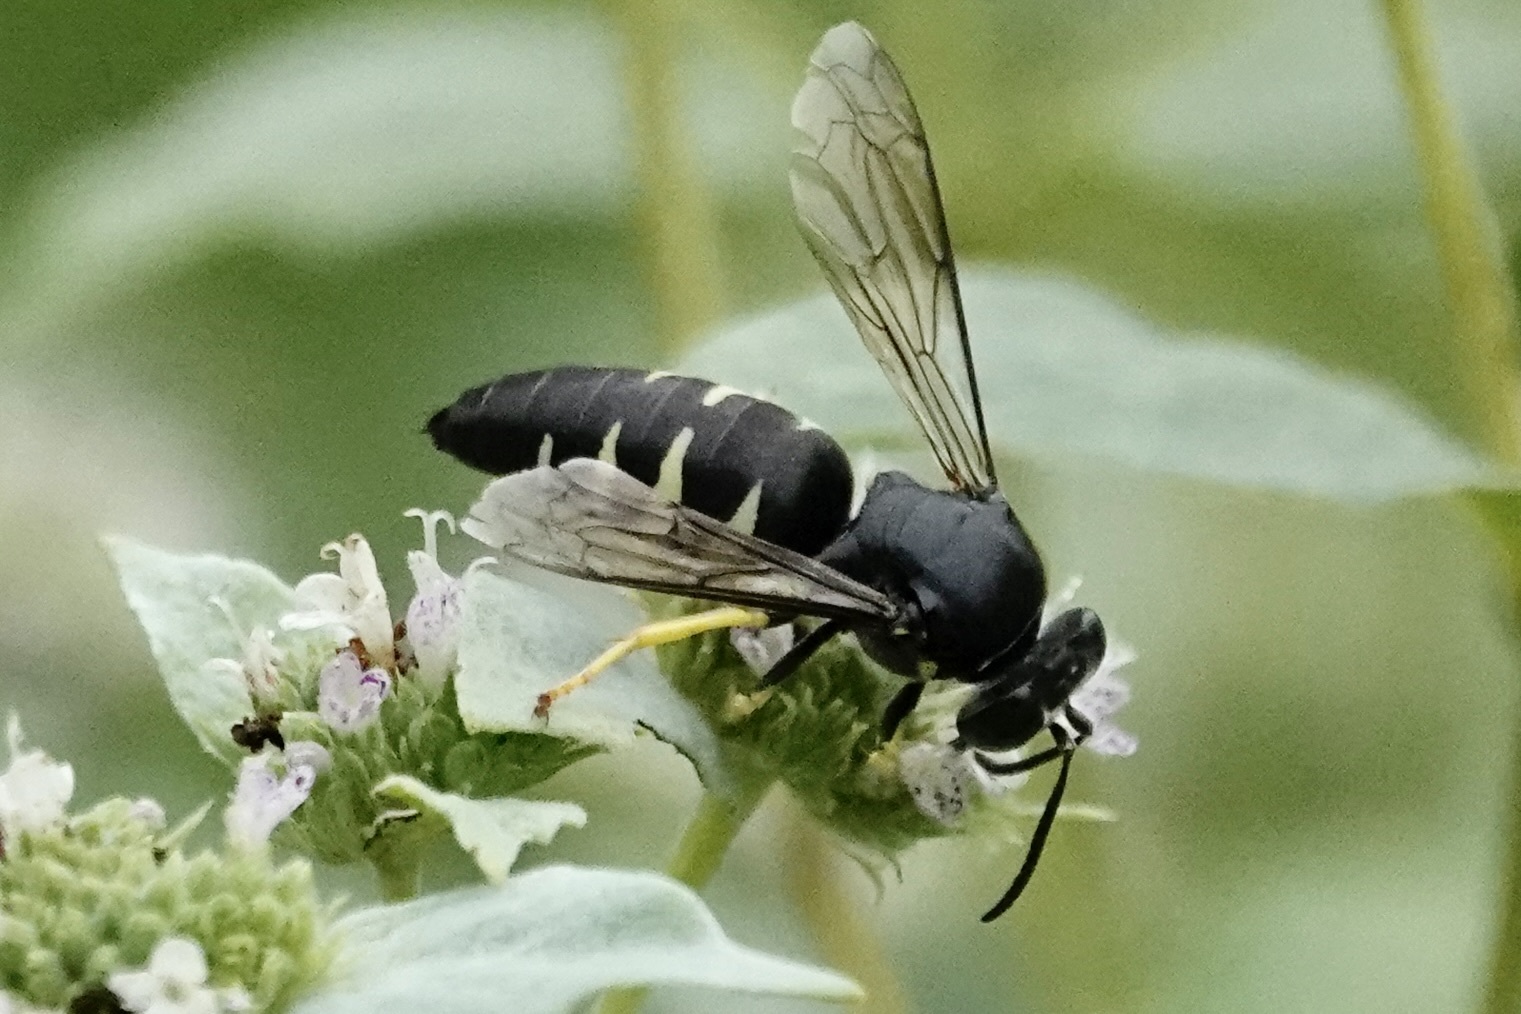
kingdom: Animalia
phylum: Arthropoda
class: Insecta
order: Hymenoptera
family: Crabronidae
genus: Bicyrtes
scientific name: Bicyrtes quadrifasciatus
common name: Four-banded stink bug hunter wasp
